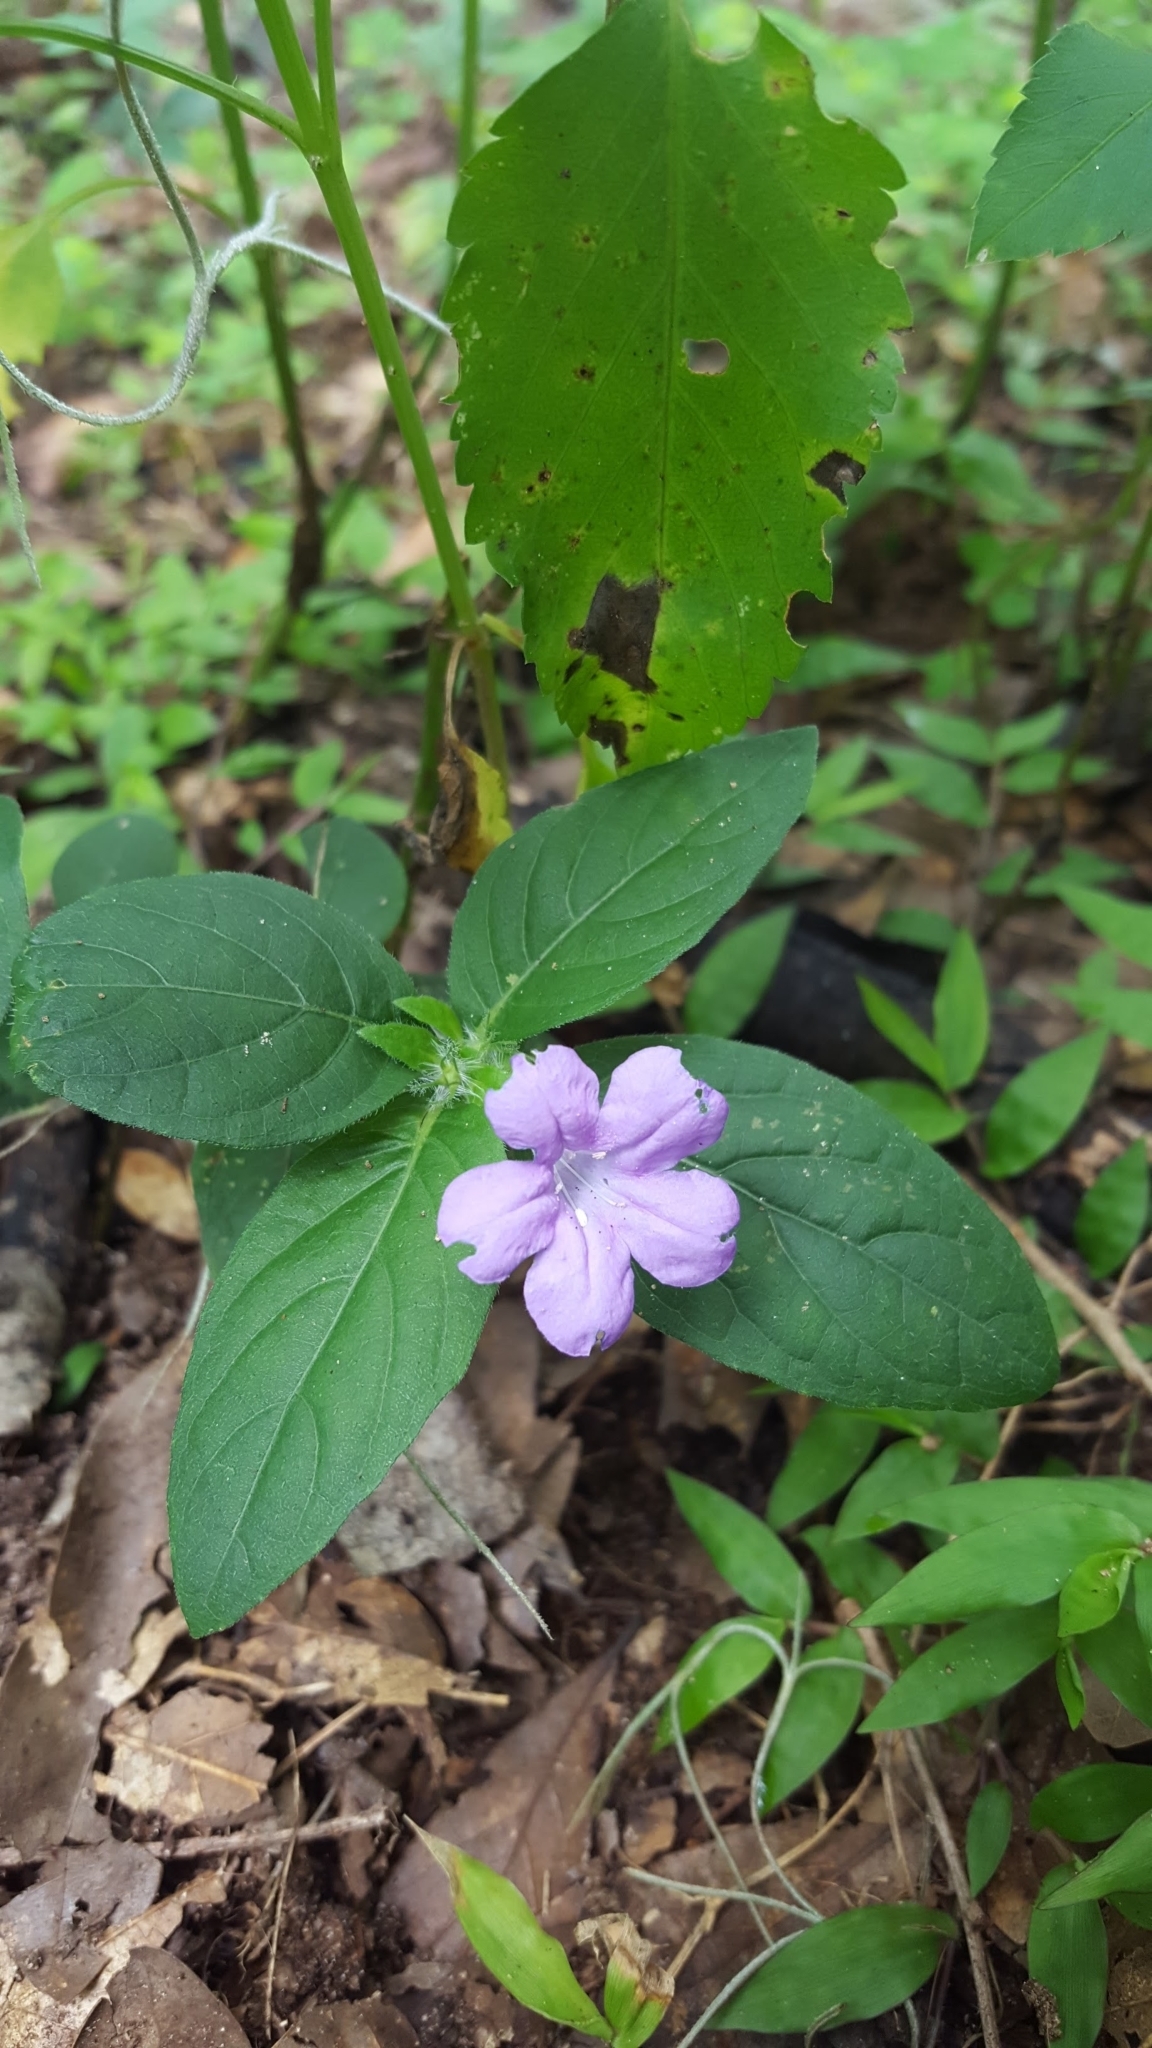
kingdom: Plantae
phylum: Tracheophyta
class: Magnoliopsida
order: Lamiales
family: Acanthaceae
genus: Ruellia
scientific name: Ruellia caroliniensis
